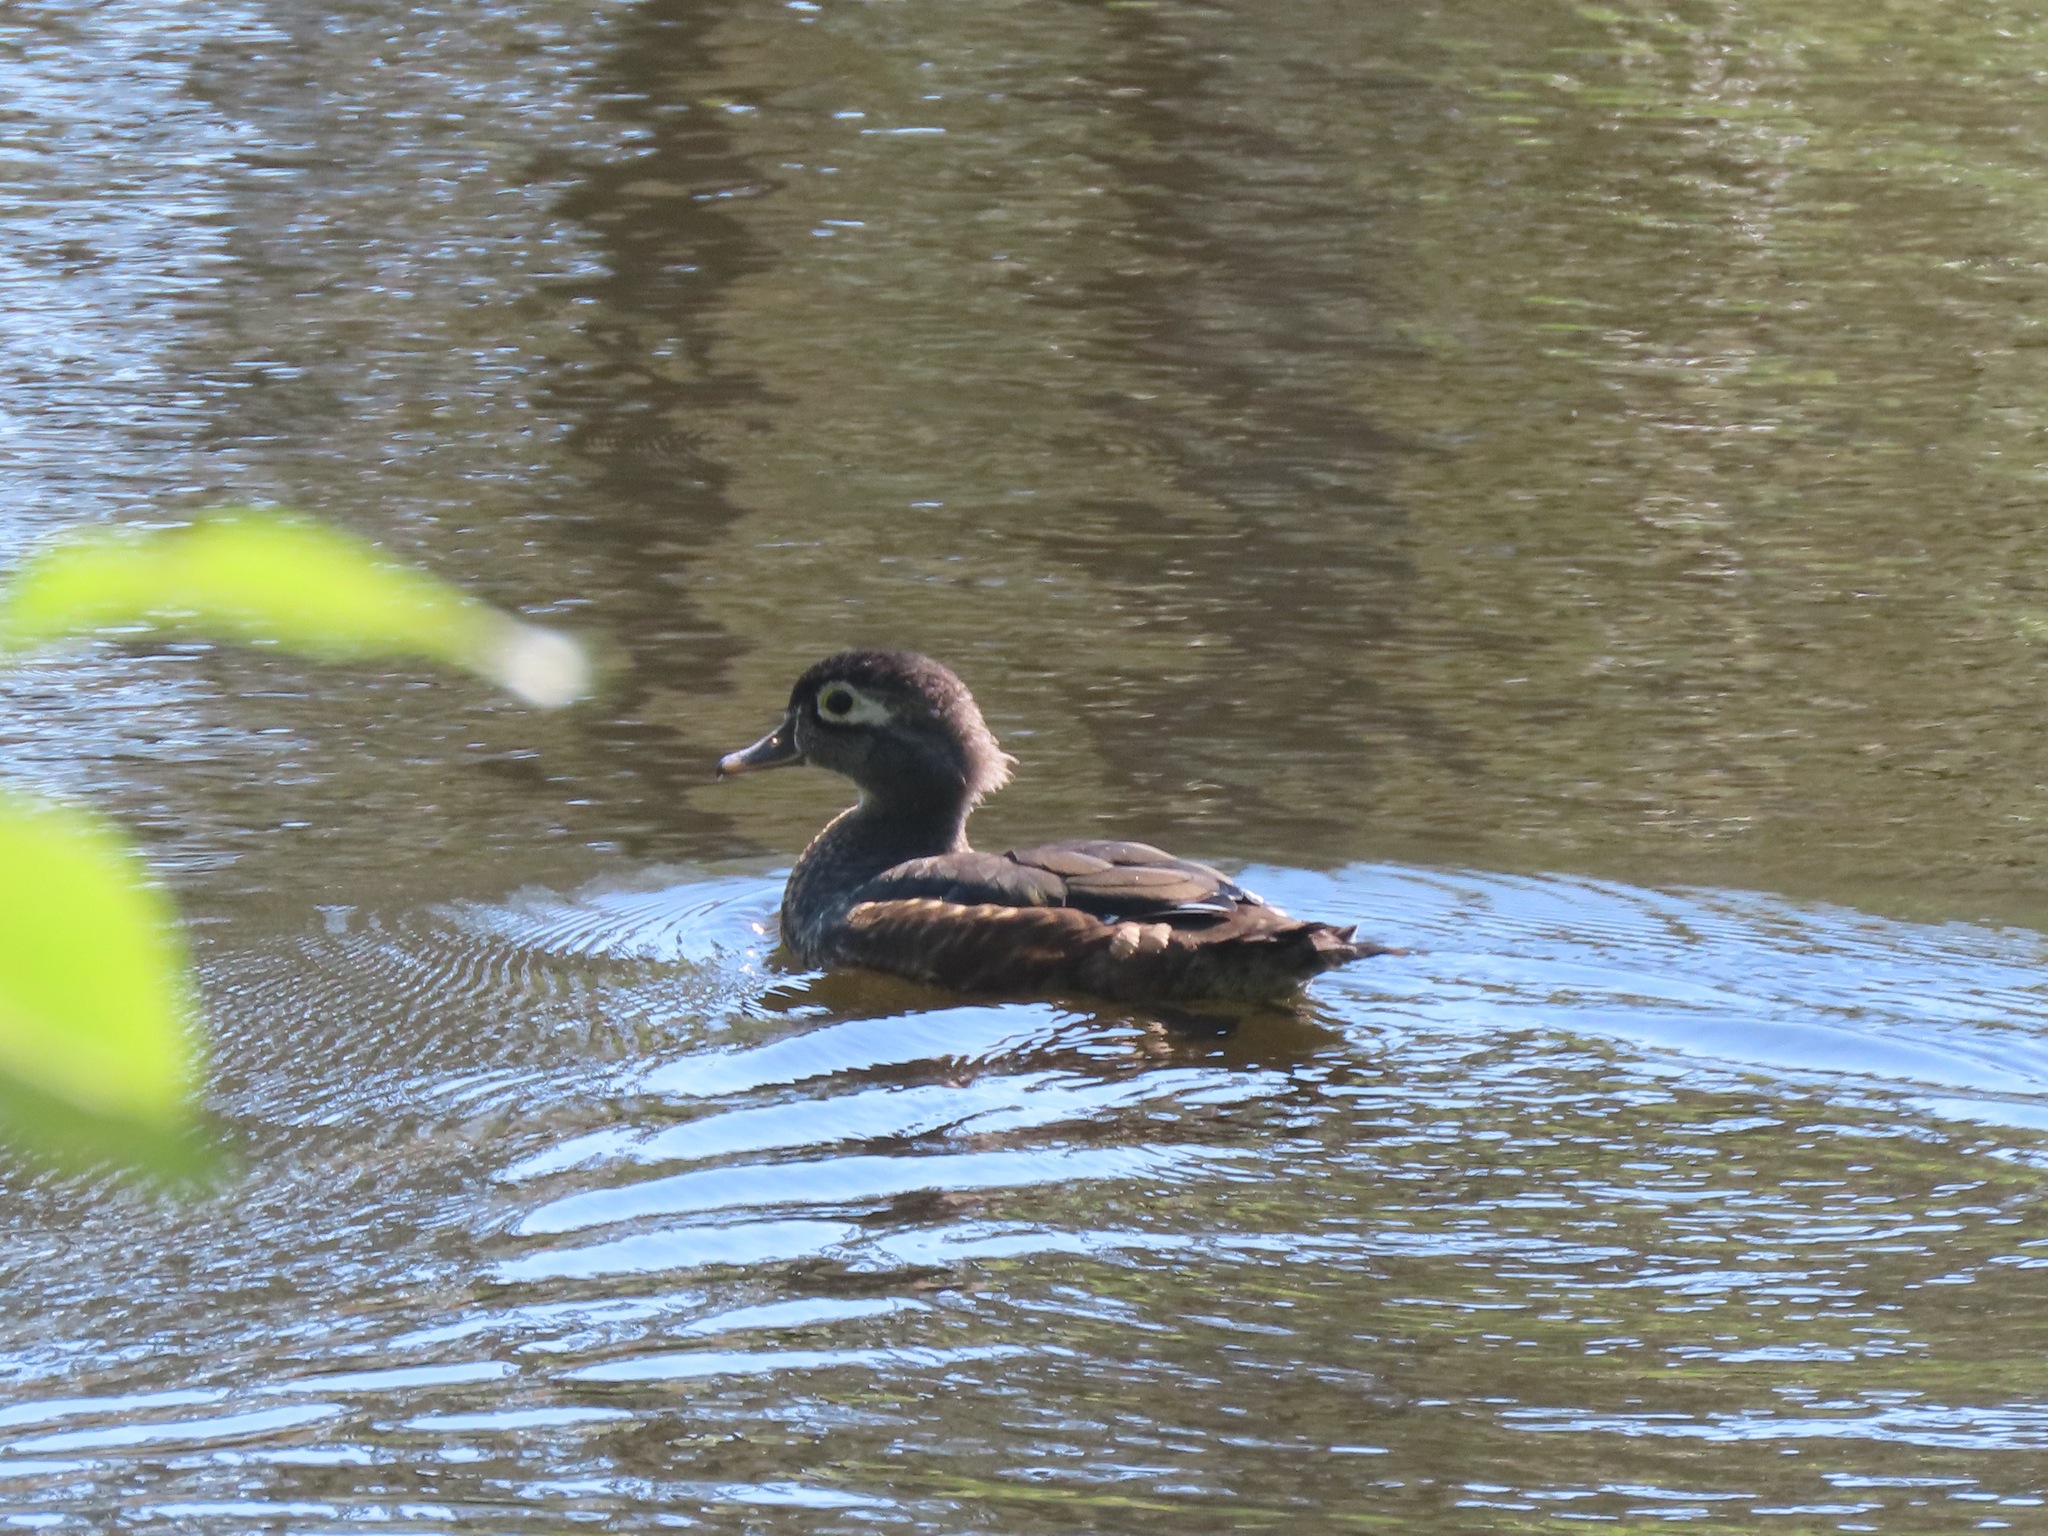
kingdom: Animalia
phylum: Chordata
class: Aves
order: Anseriformes
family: Anatidae
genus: Aix
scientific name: Aix sponsa
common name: Wood duck
